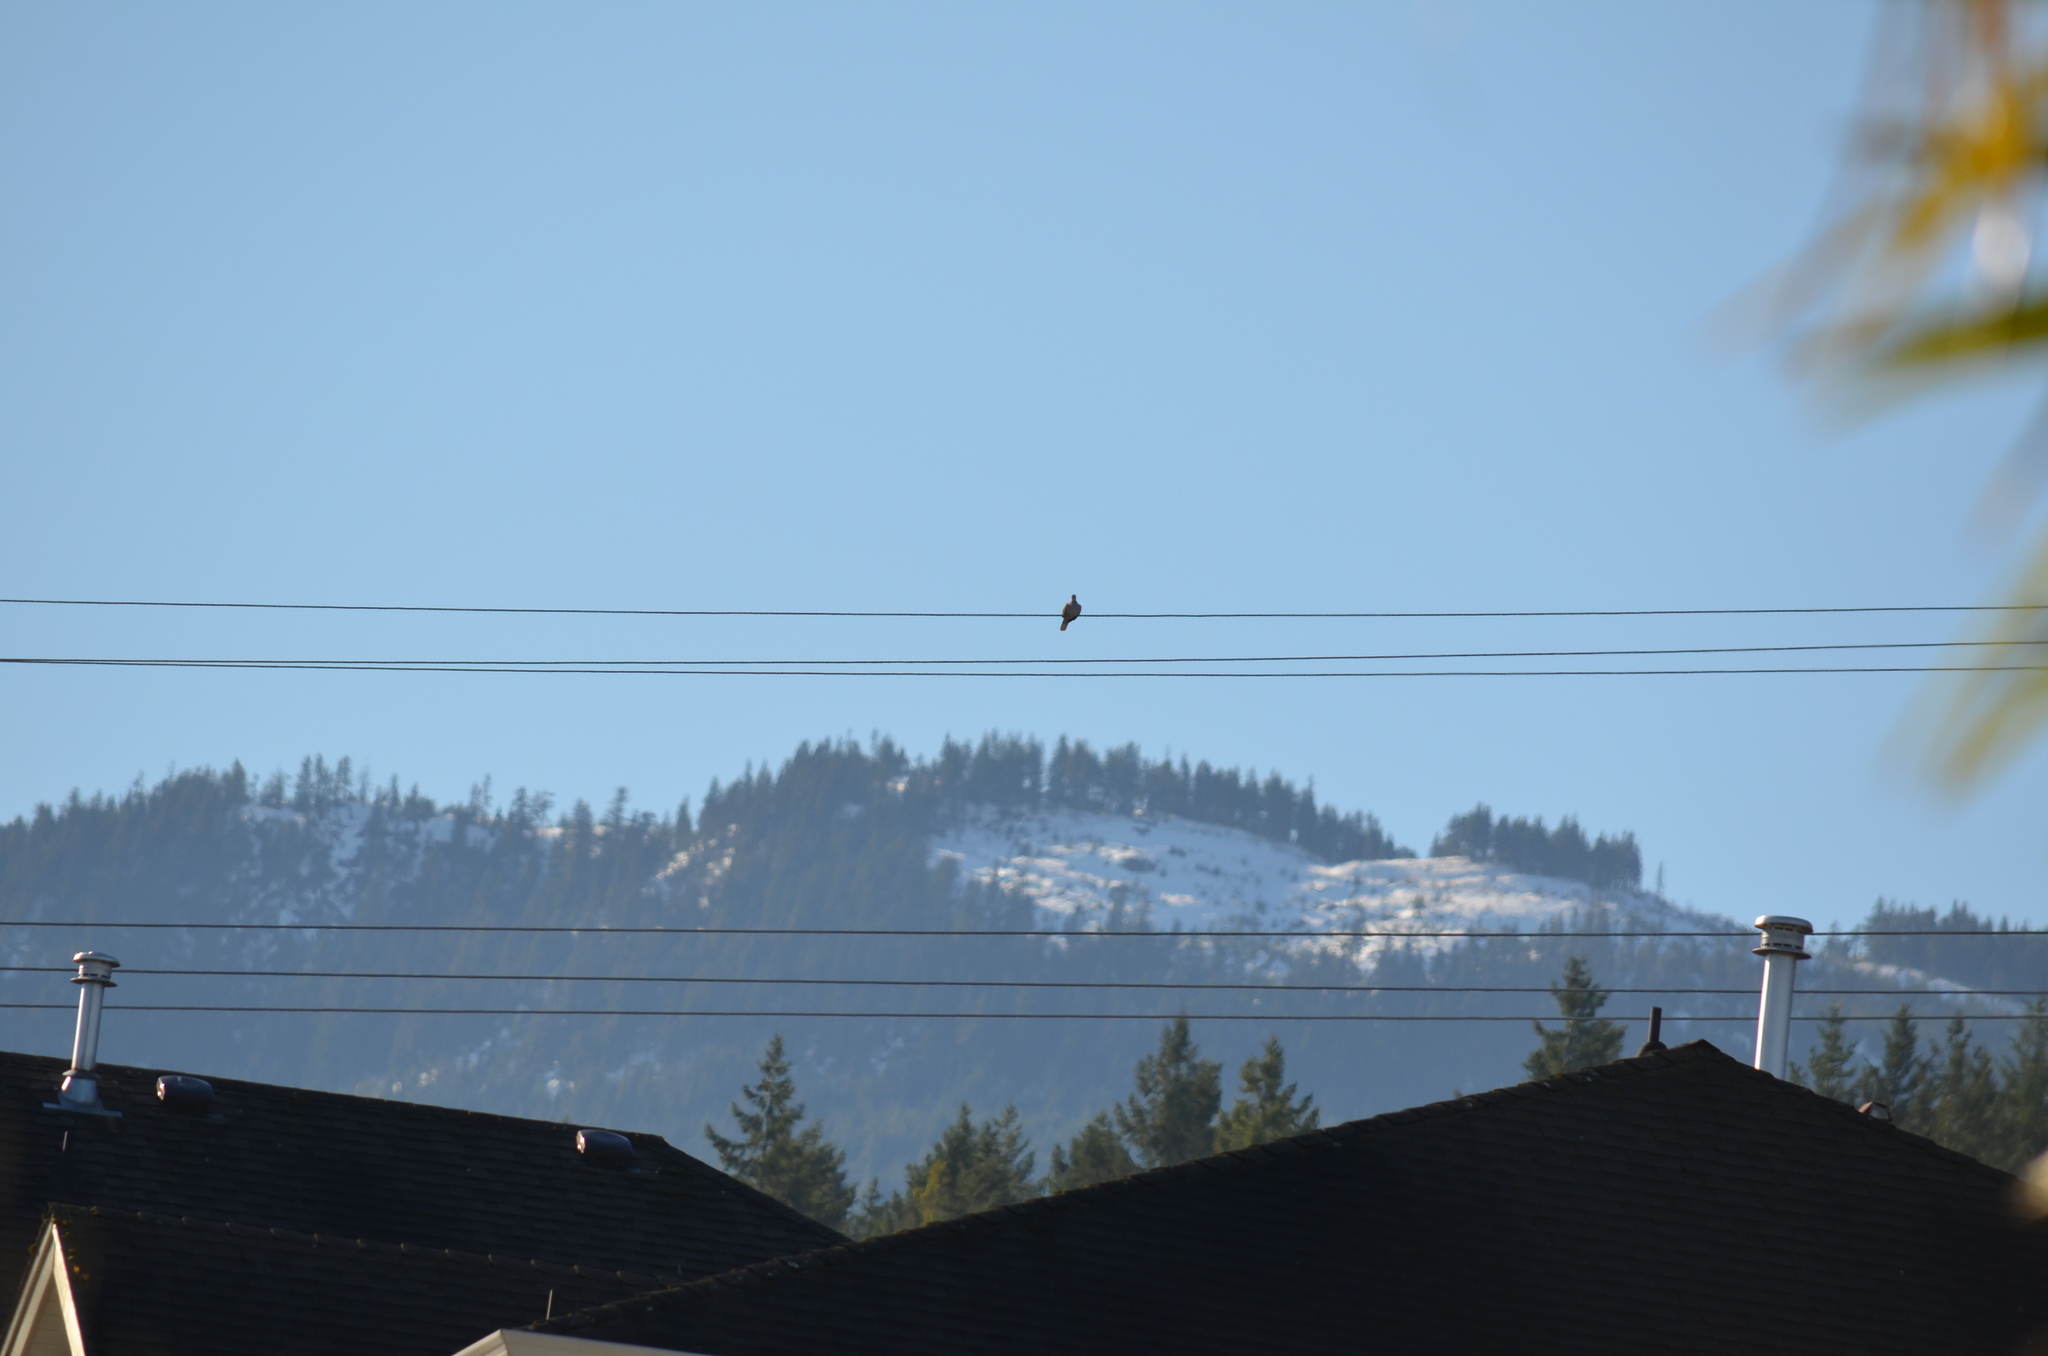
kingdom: Animalia
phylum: Chordata
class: Aves
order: Columbiformes
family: Columbidae
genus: Streptopelia
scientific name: Streptopelia decaocto
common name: Eurasian collared dove
